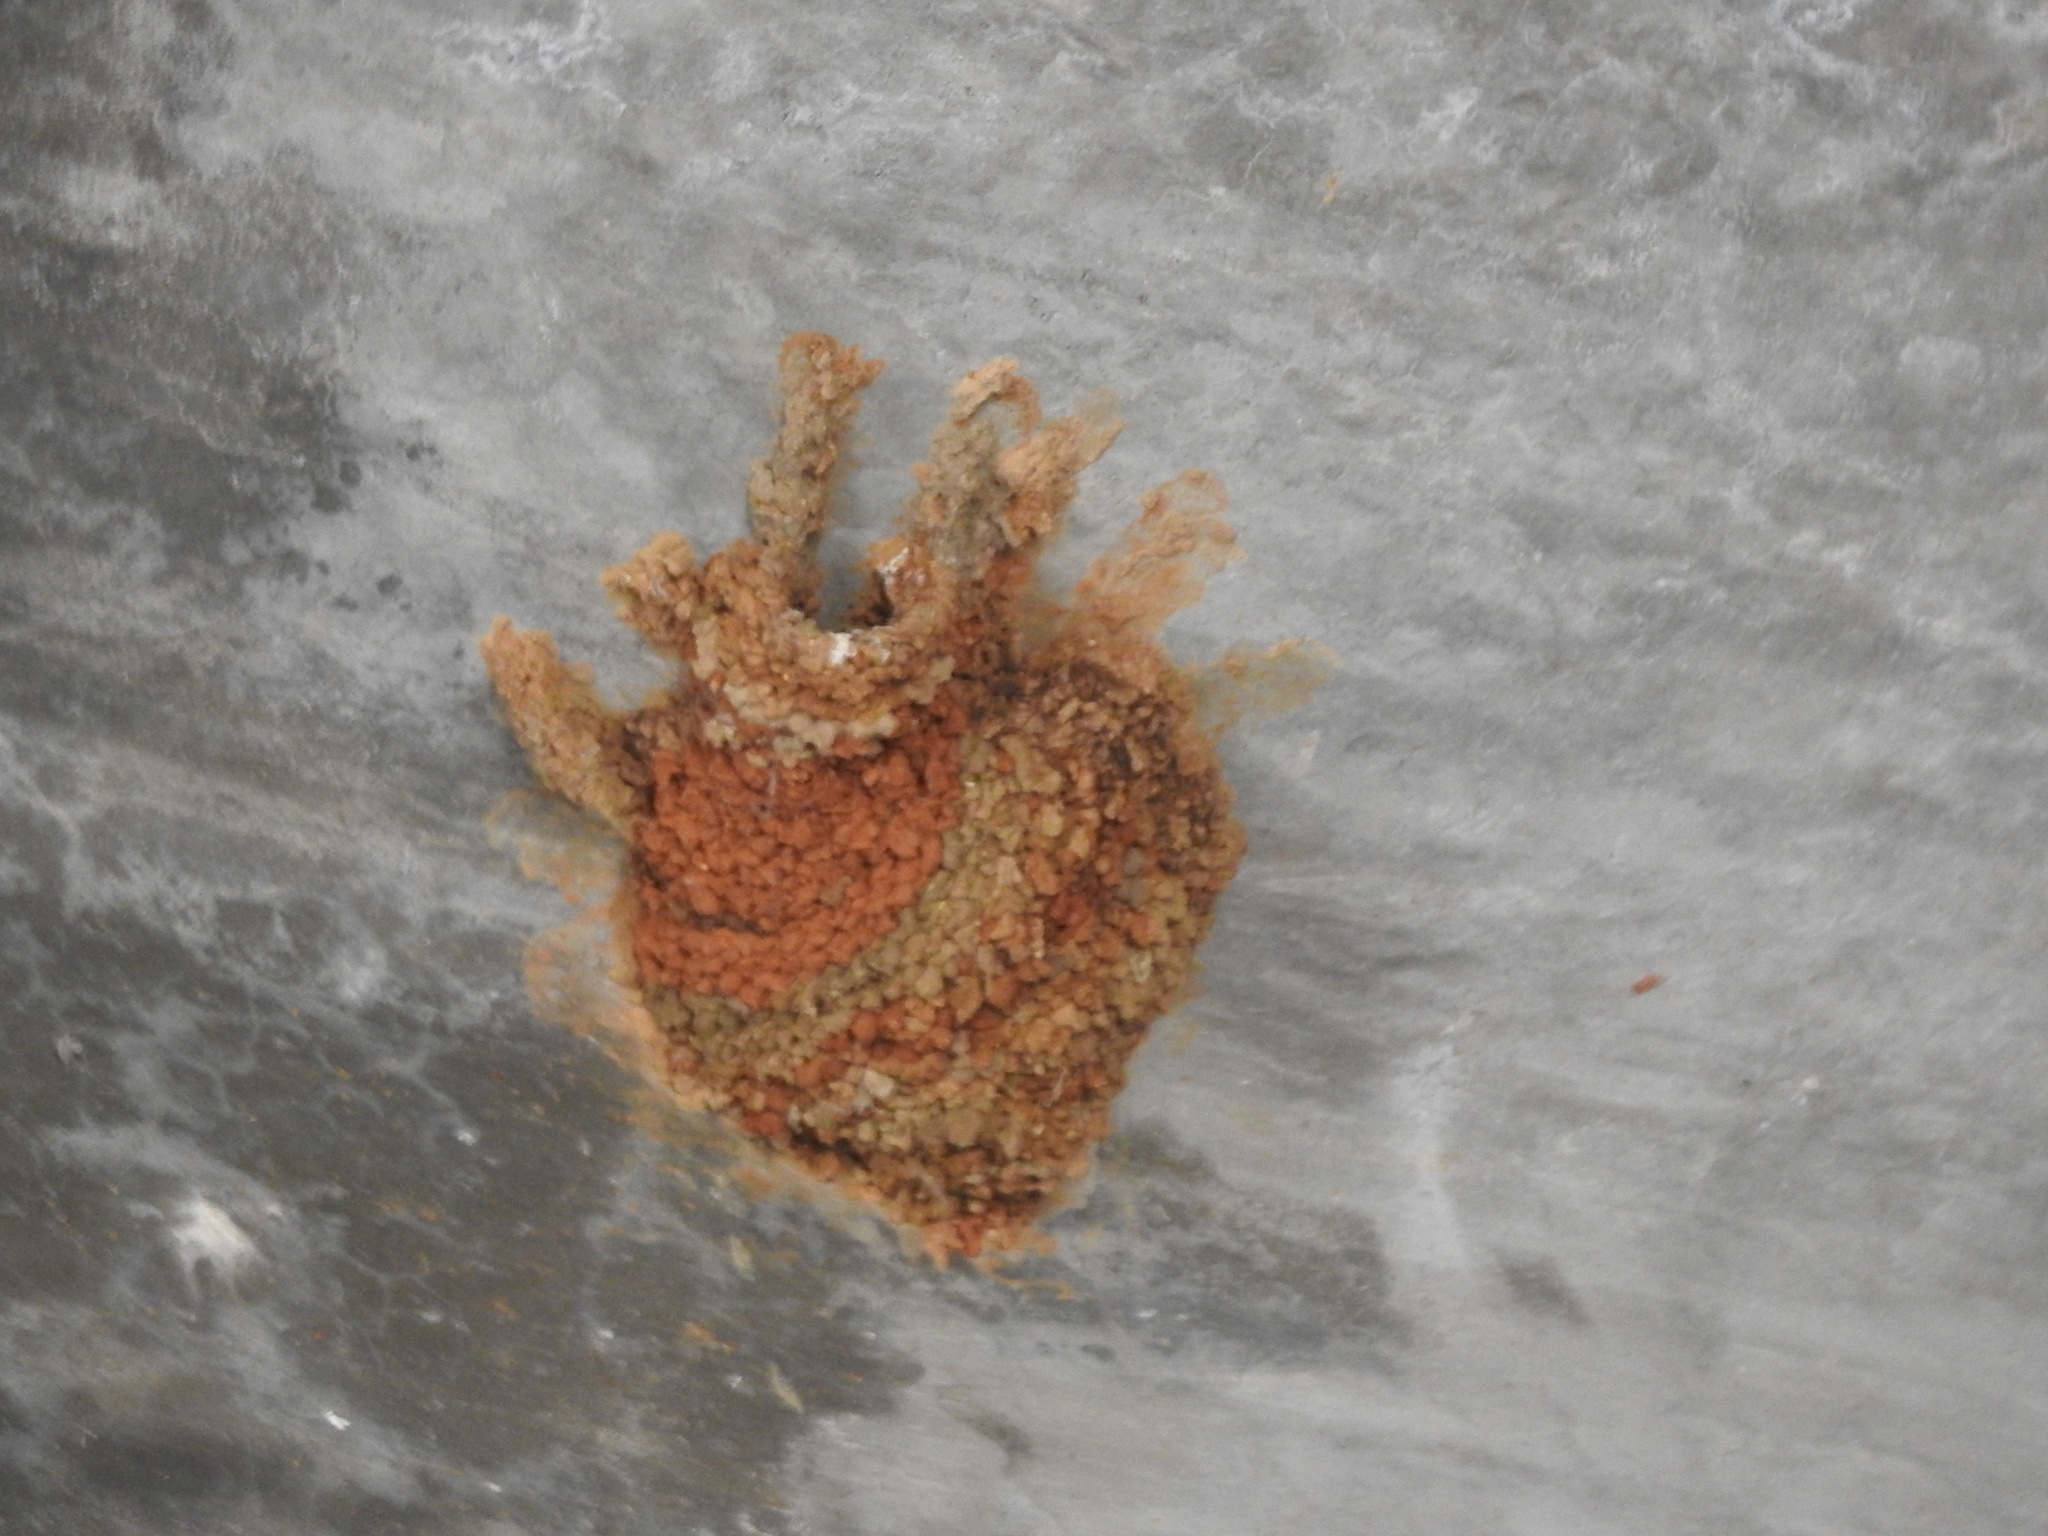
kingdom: Animalia
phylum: Chordata
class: Aves
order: Passeriformes
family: Hirundinidae
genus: Cecropis
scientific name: Cecropis daurica
